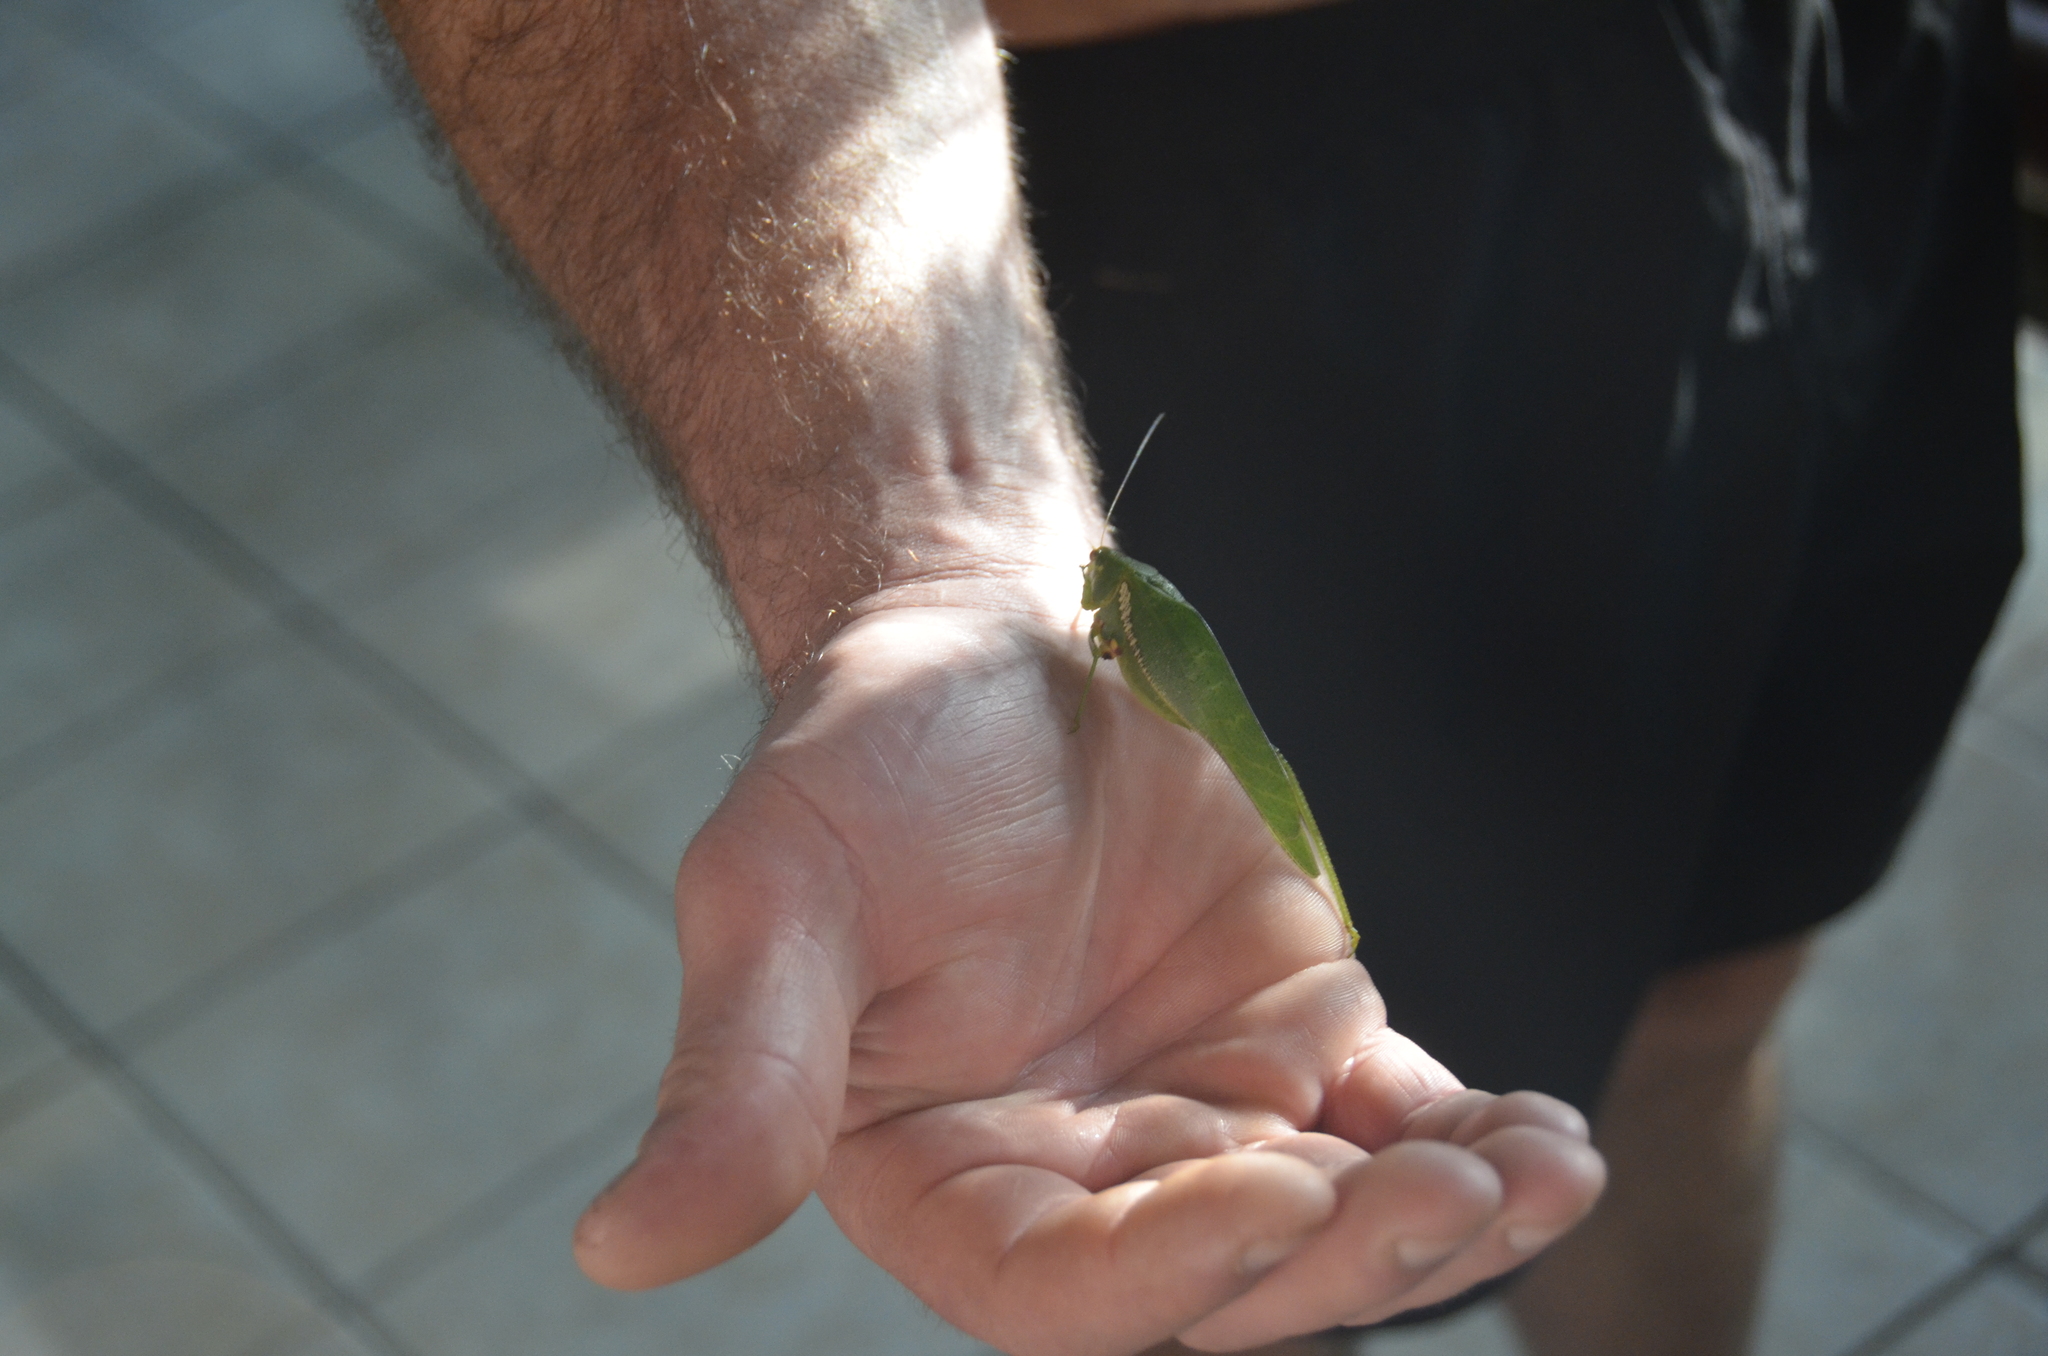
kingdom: Animalia
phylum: Arthropoda
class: Insecta
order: Orthoptera
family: Tettigoniidae
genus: Philophyllia
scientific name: Philophyllia guttulata
